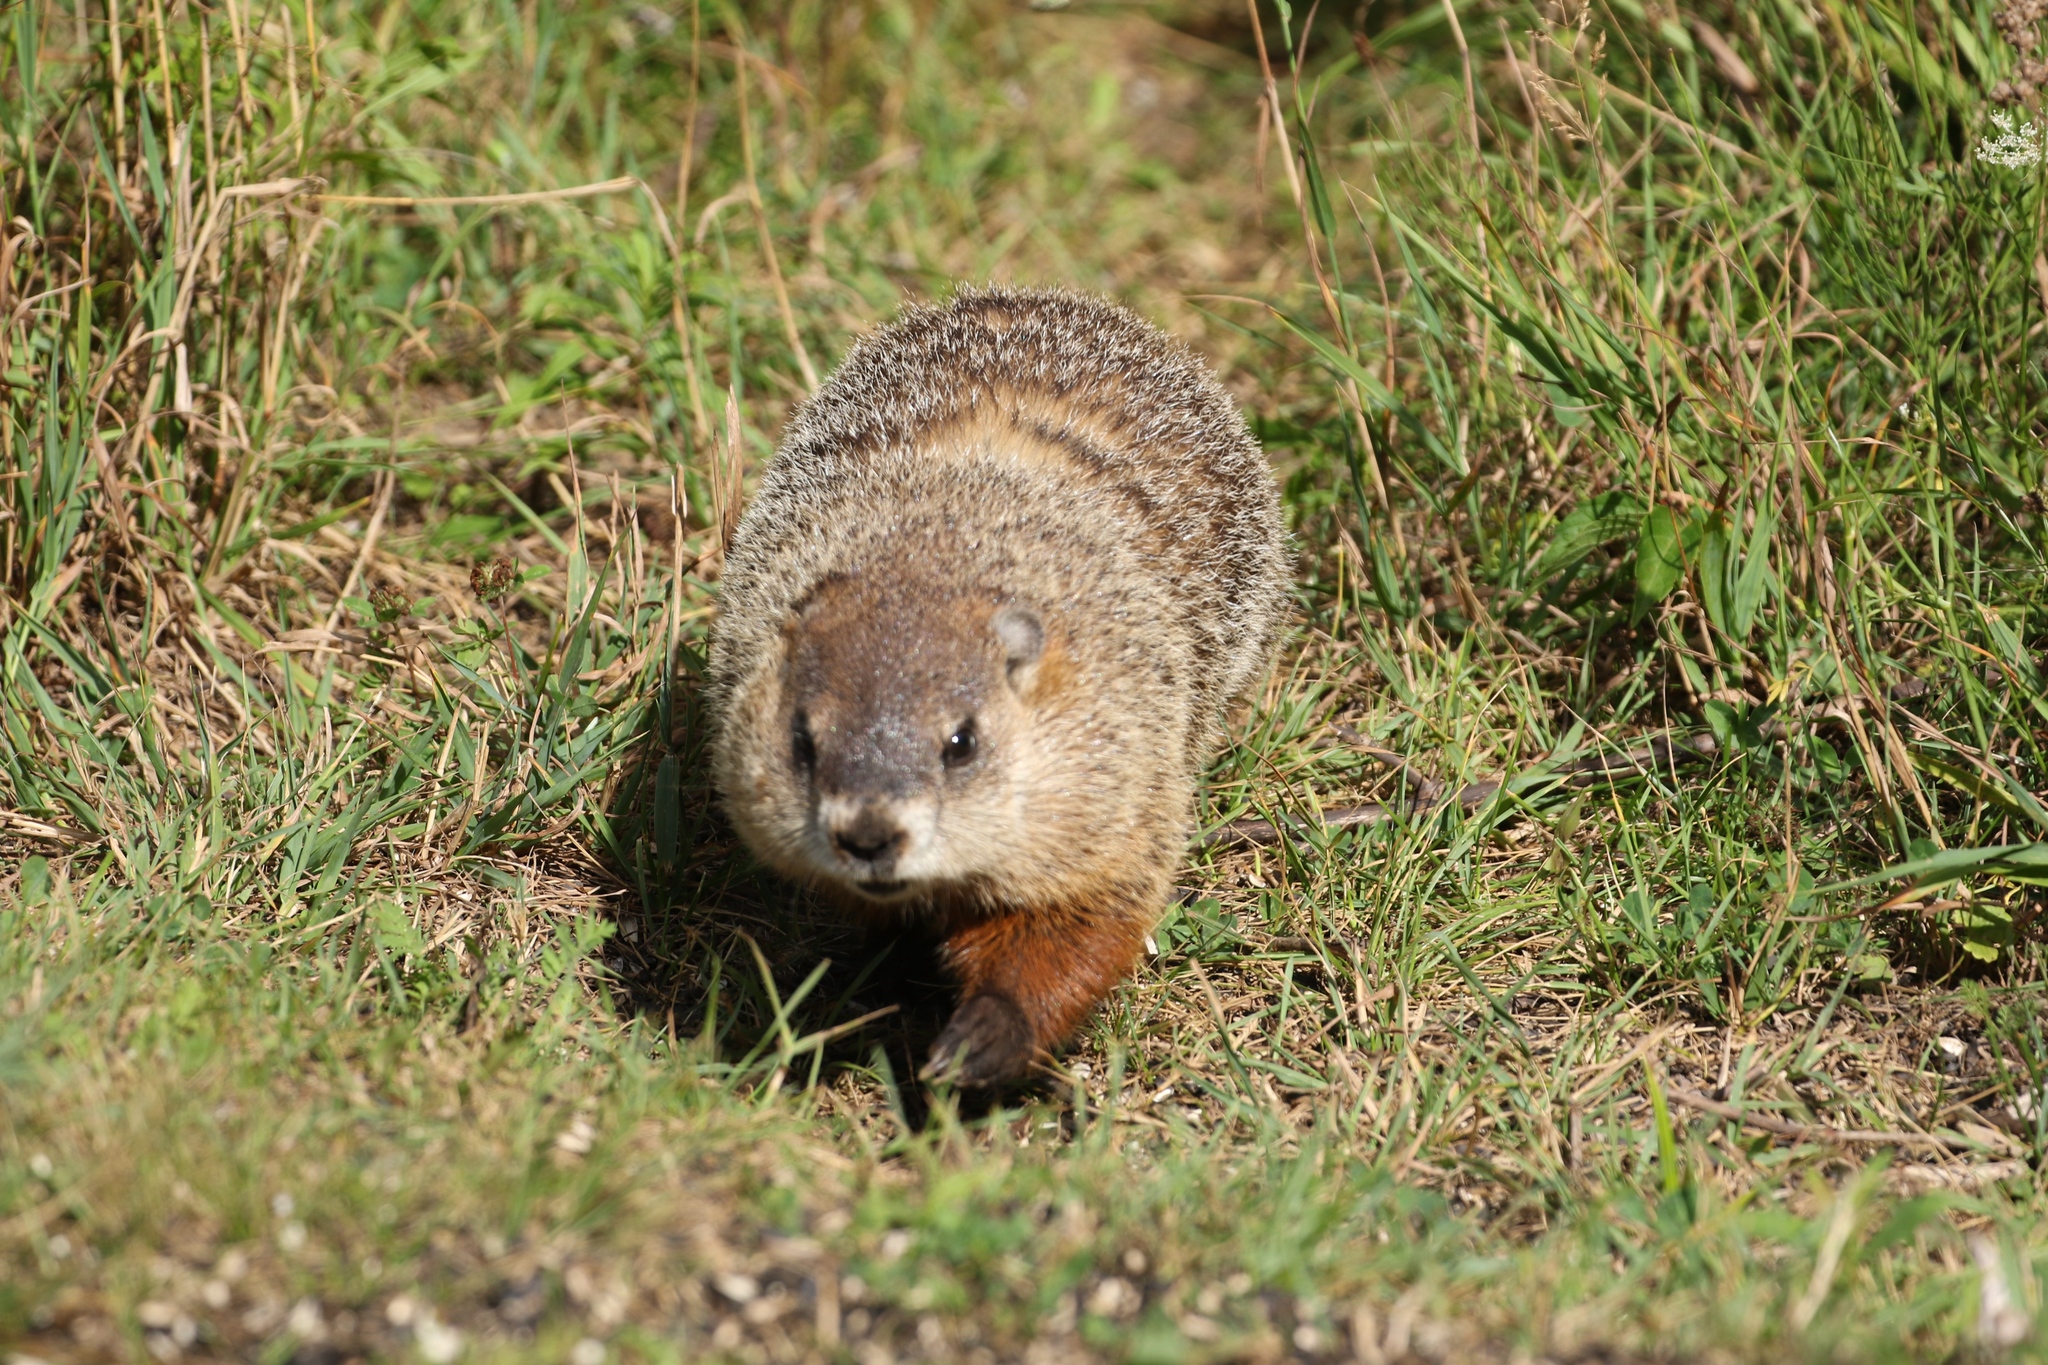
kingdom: Animalia
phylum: Chordata
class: Mammalia
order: Rodentia
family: Sciuridae
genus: Marmota
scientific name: Marmota monax
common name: Groundhog
